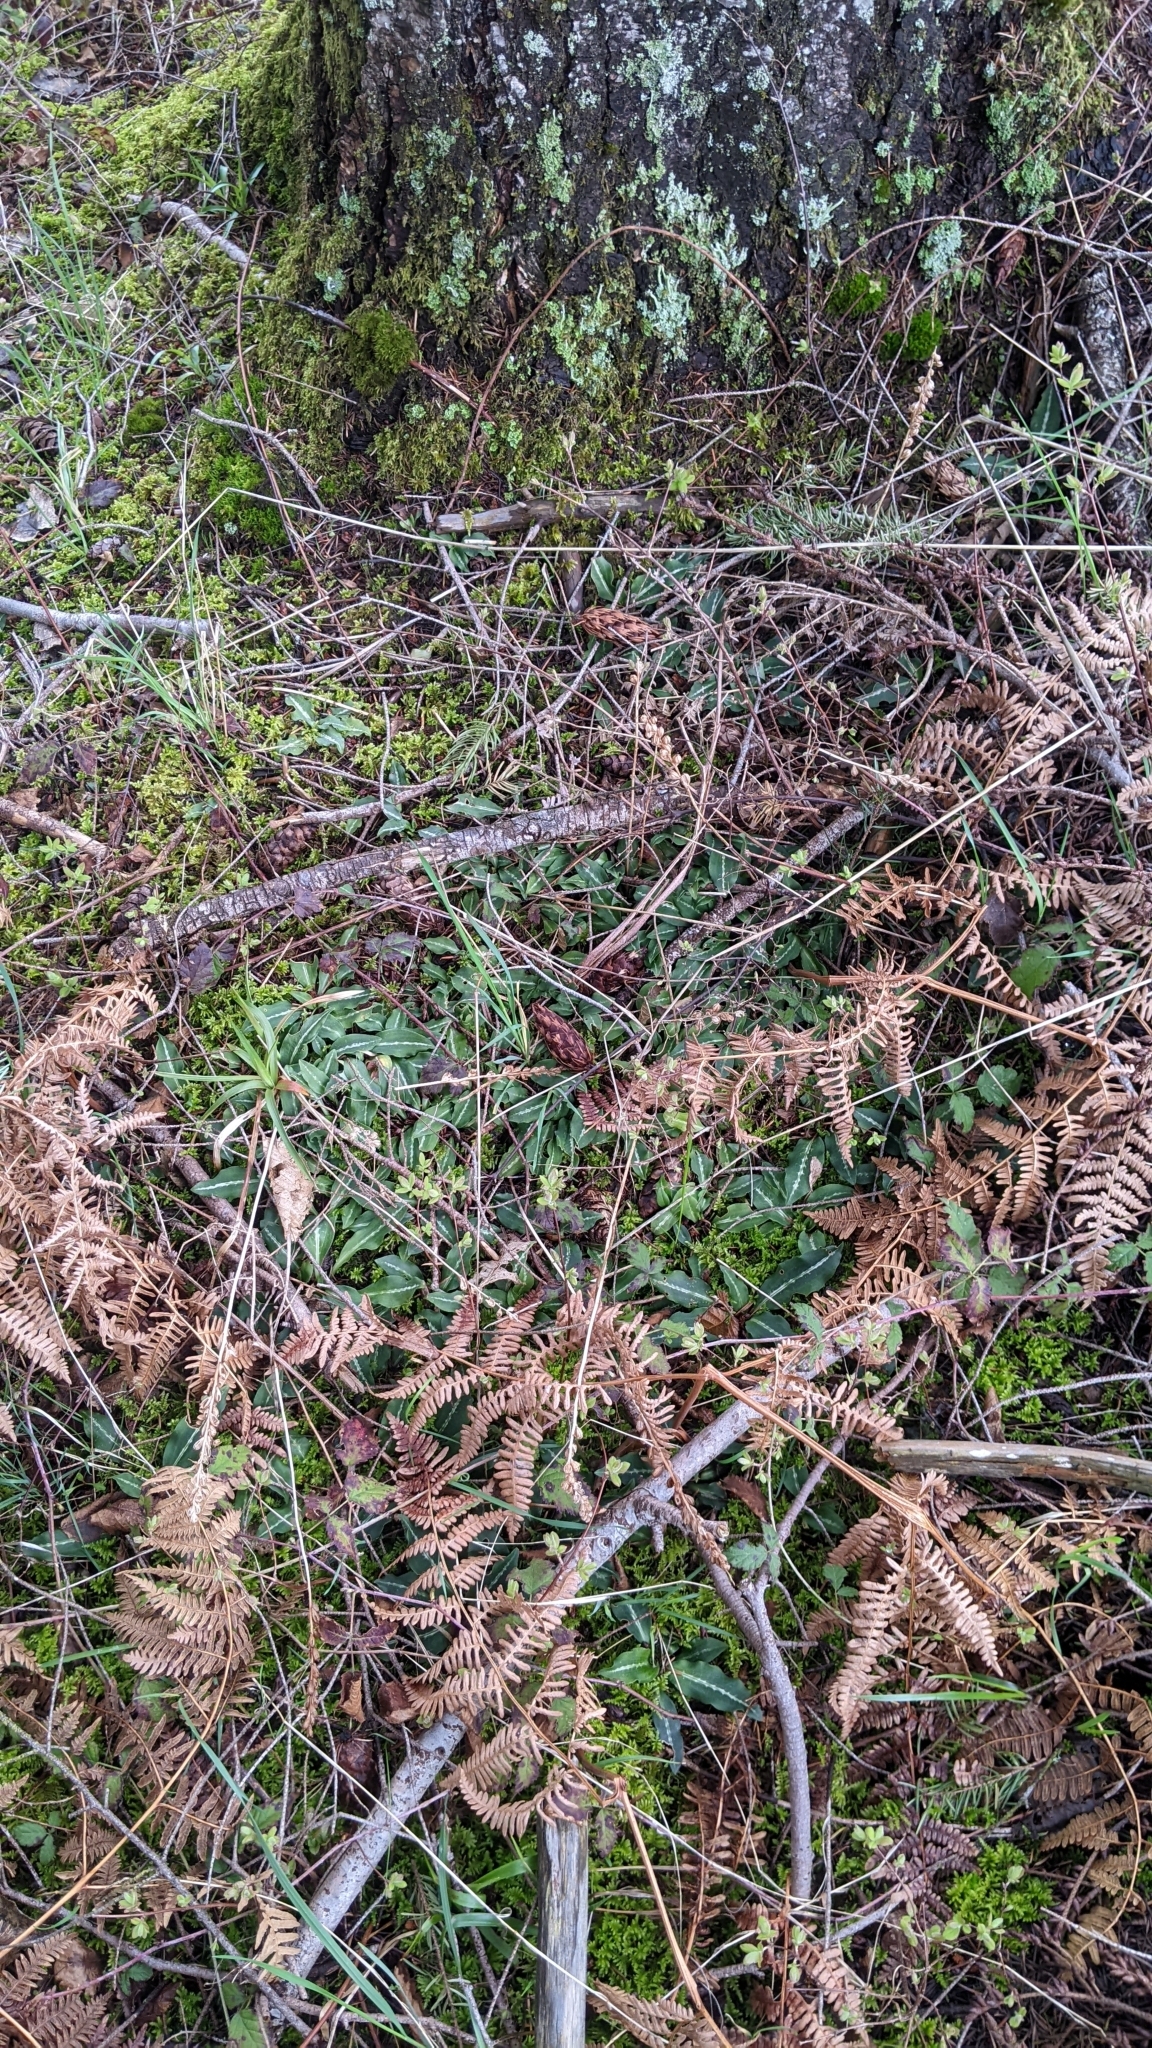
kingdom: Plantae
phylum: Tracheophyta
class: Liliopsida
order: Asparagales
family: Orchidaceae
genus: Goodyera
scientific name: Goodyera oblongifolia
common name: Giant rattlesnake-plantain
